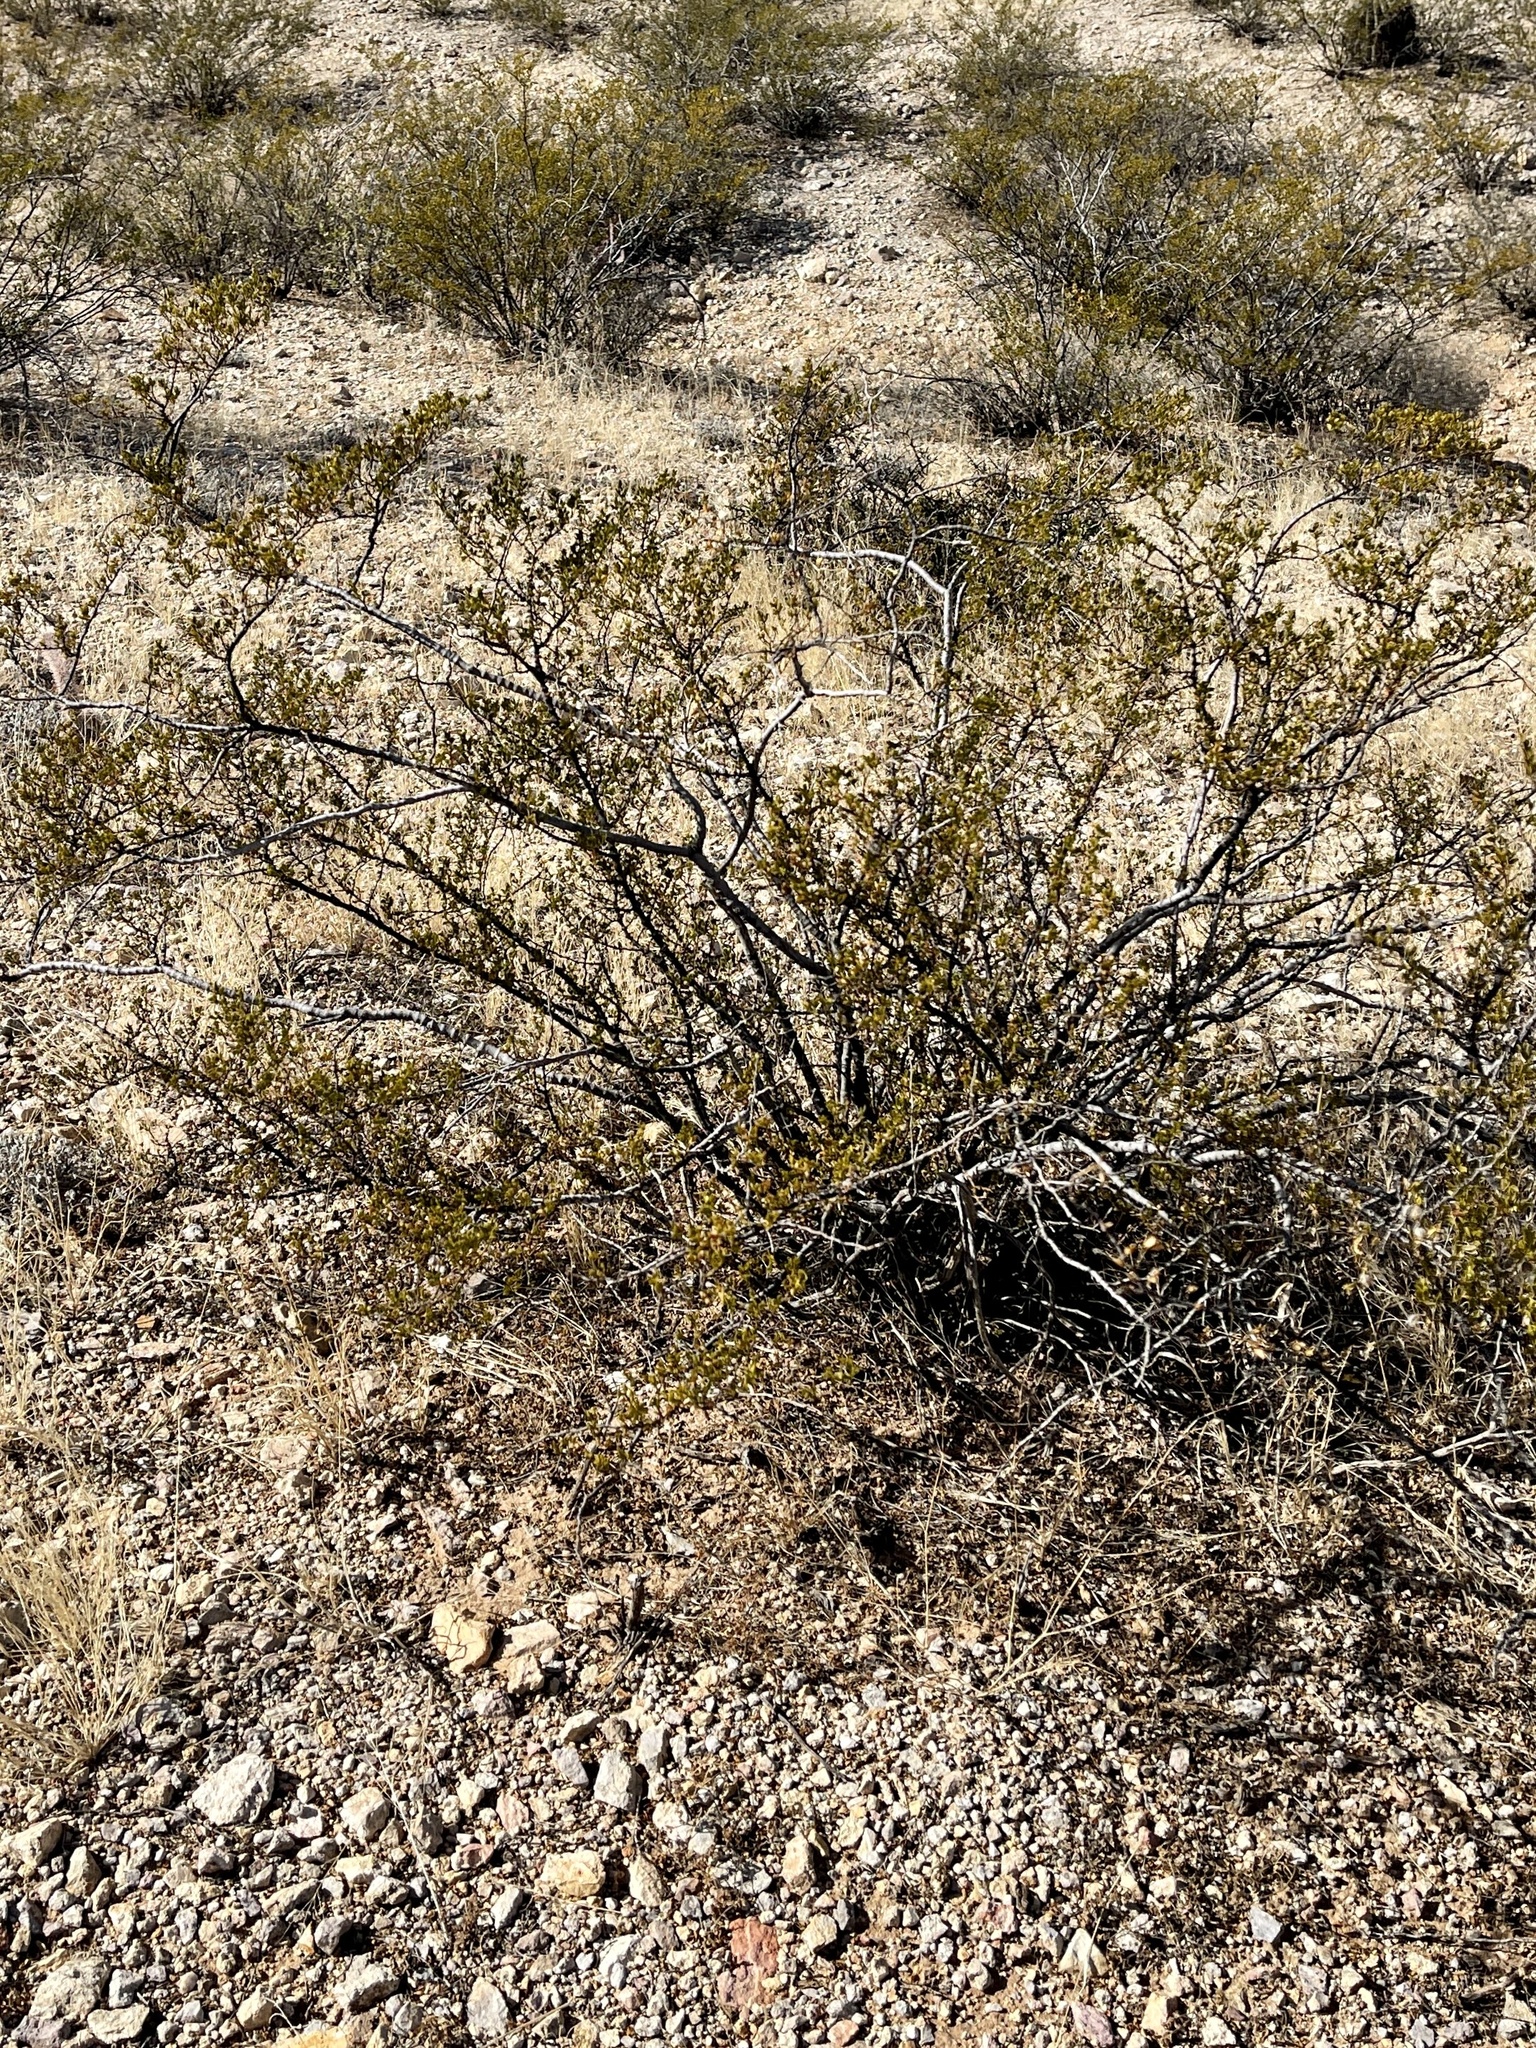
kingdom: Plantae
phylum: Tracheophyta
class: Magnoliopsida
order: Zygophyllales
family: Zygophyllaceae
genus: Larrea
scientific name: Larrea tridentata
